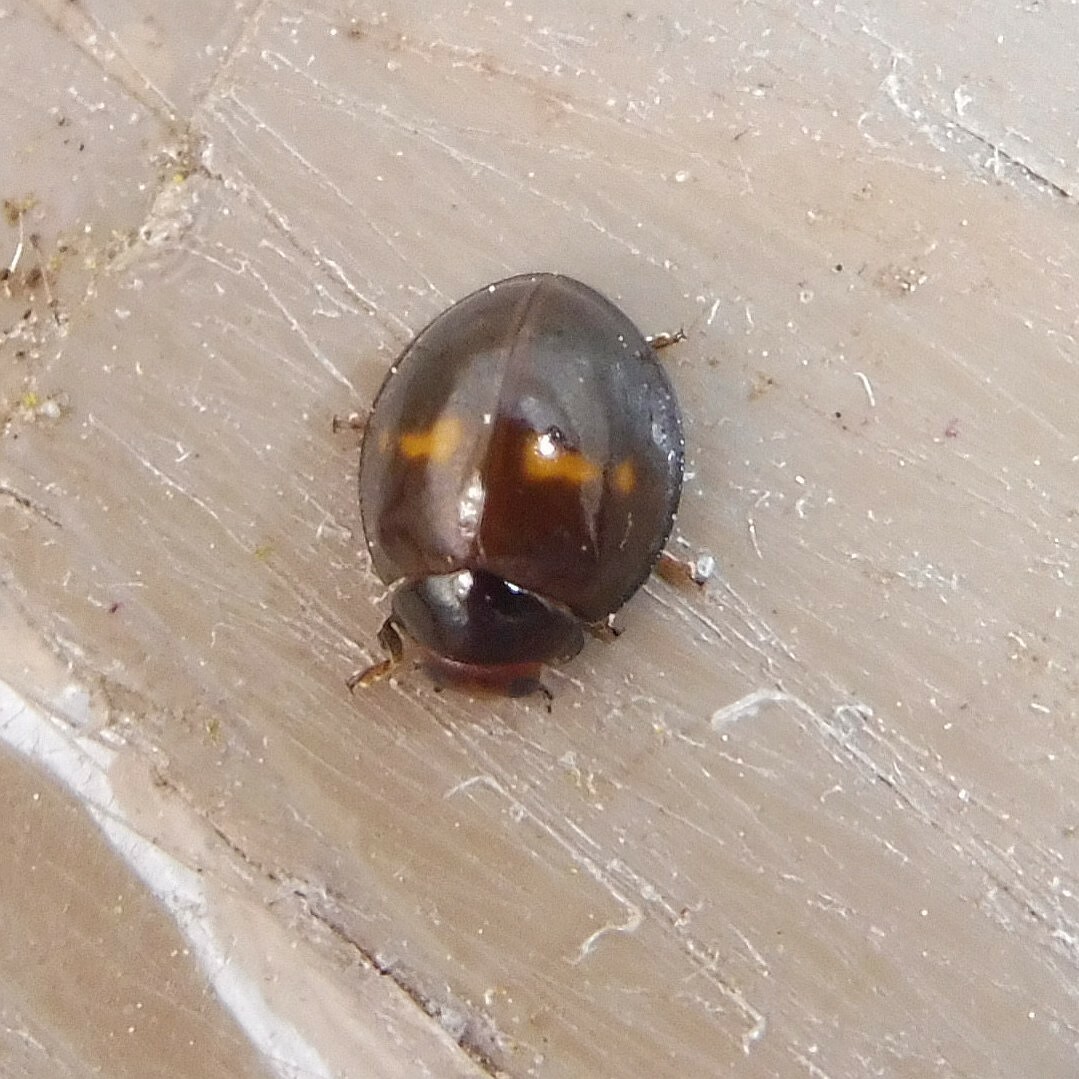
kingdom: Animalia
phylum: Arthropoda
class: Insecta
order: Coleoptera
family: Coccinellidae
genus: Chilocorus
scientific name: Chilocorus bipustulatus
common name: Heather ladybird
